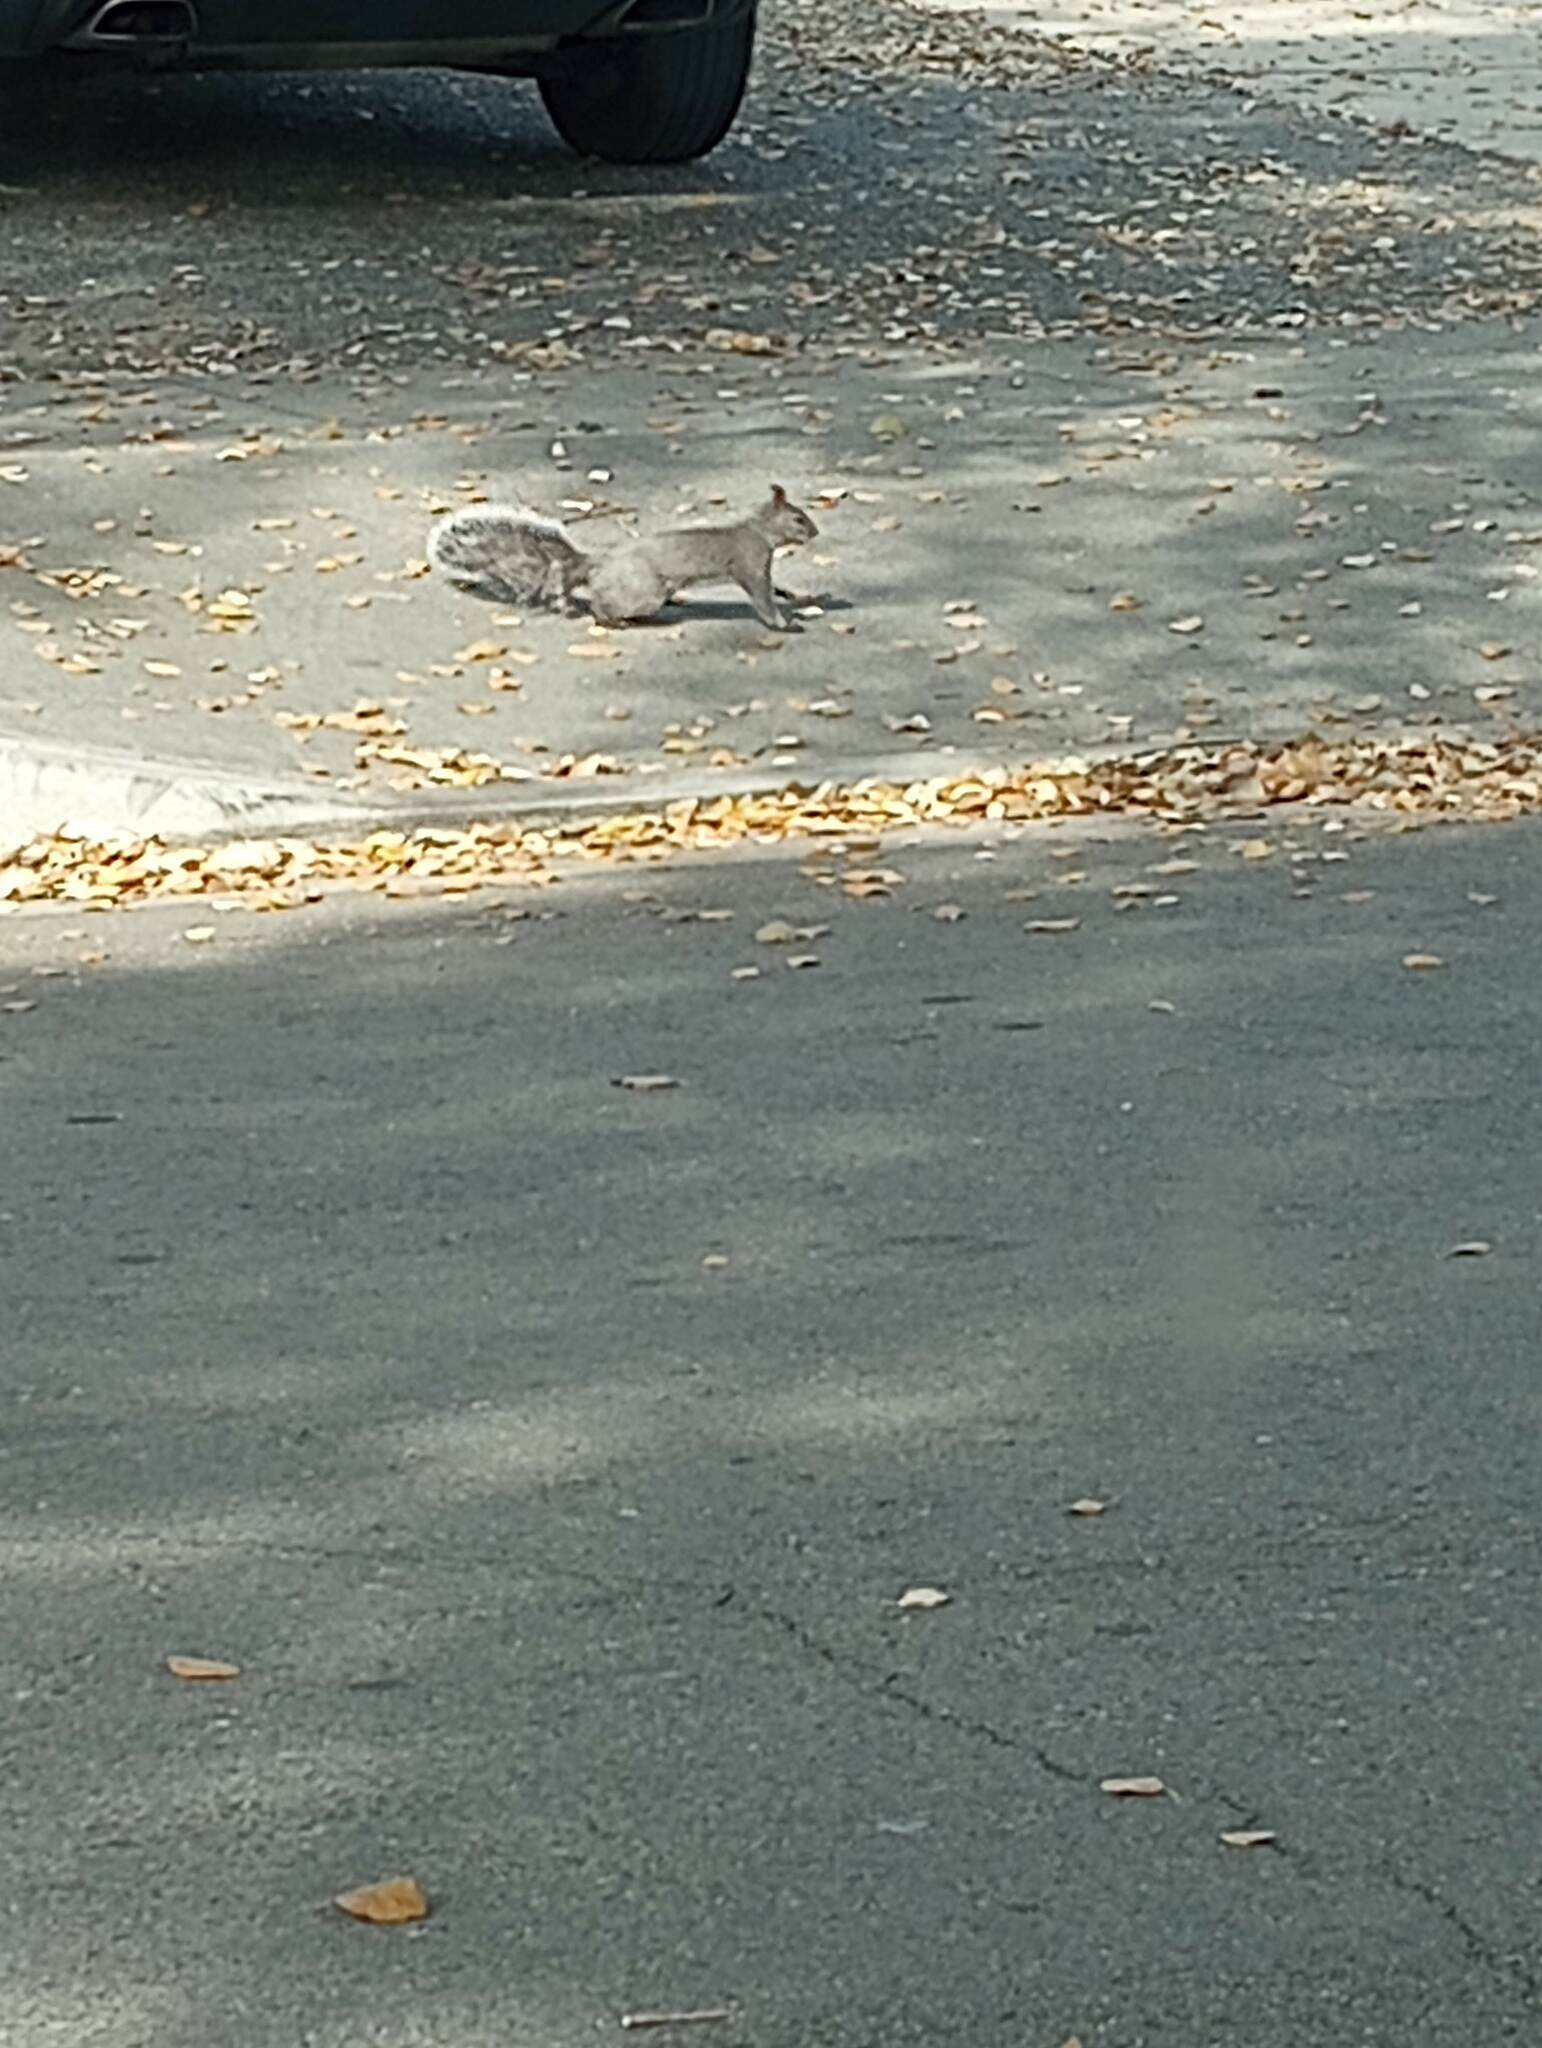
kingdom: Animalia
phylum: Chordata
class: Mammalia
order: Rodentia
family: Sciuridae
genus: Sciurus
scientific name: Sciurus griseus
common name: Western gray squirrel
